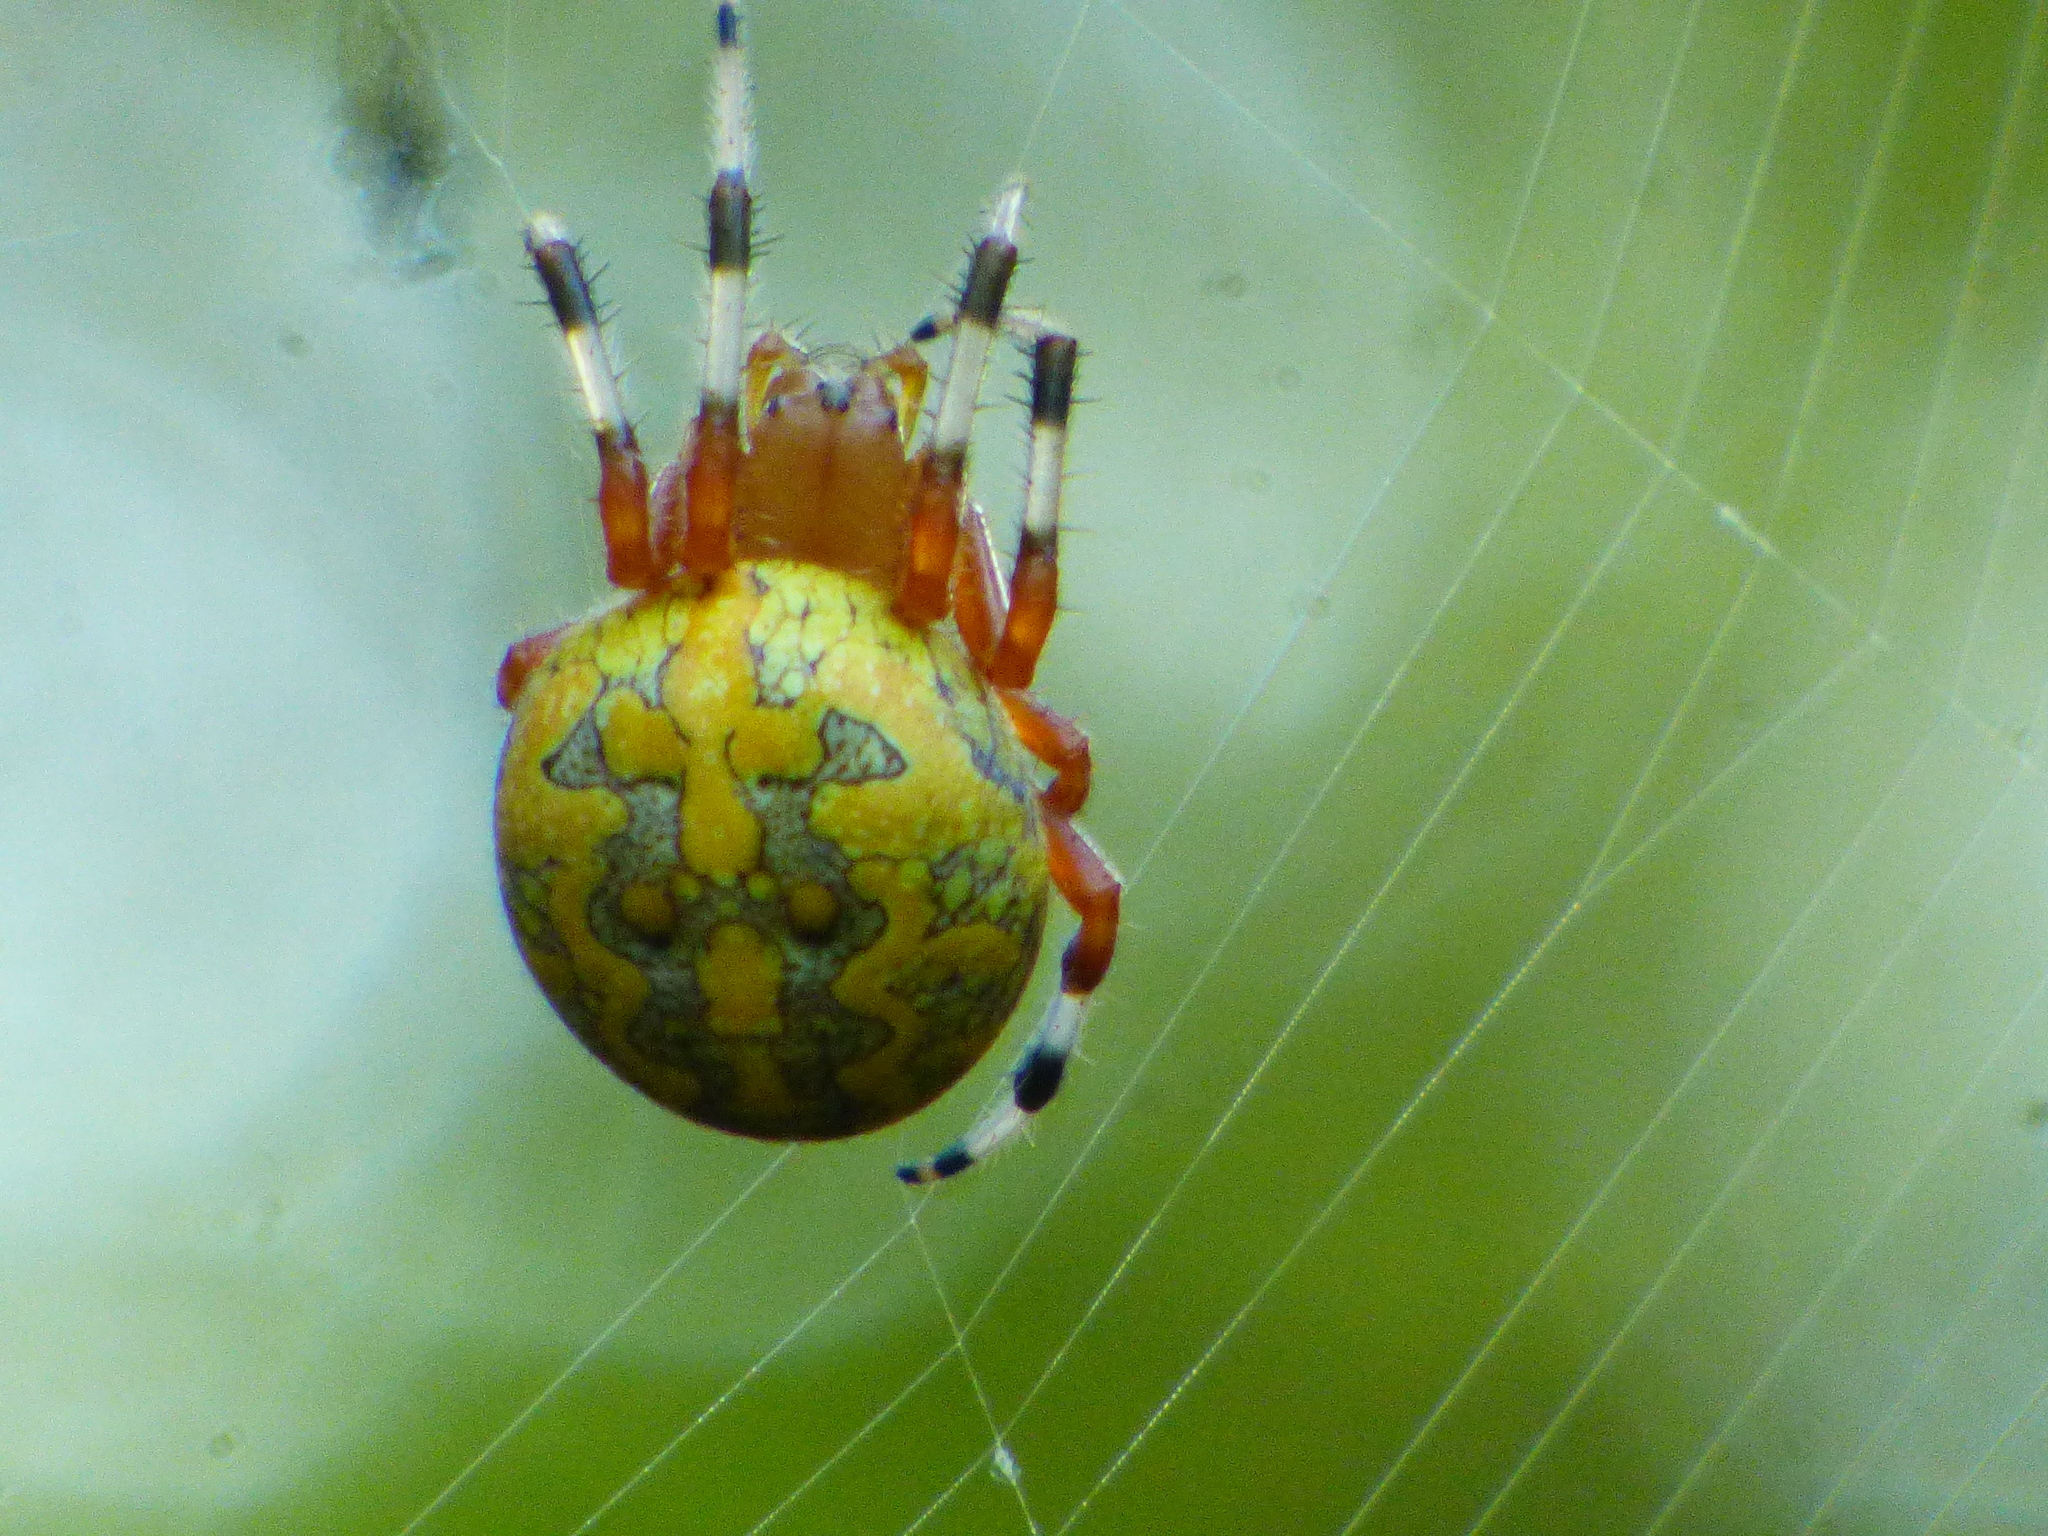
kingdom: Animalia
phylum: Arthropoda
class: Arachnida
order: Araneae
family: Araneidae
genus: Araneus
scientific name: Araneus marmoreus
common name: Marbled orbweaver
